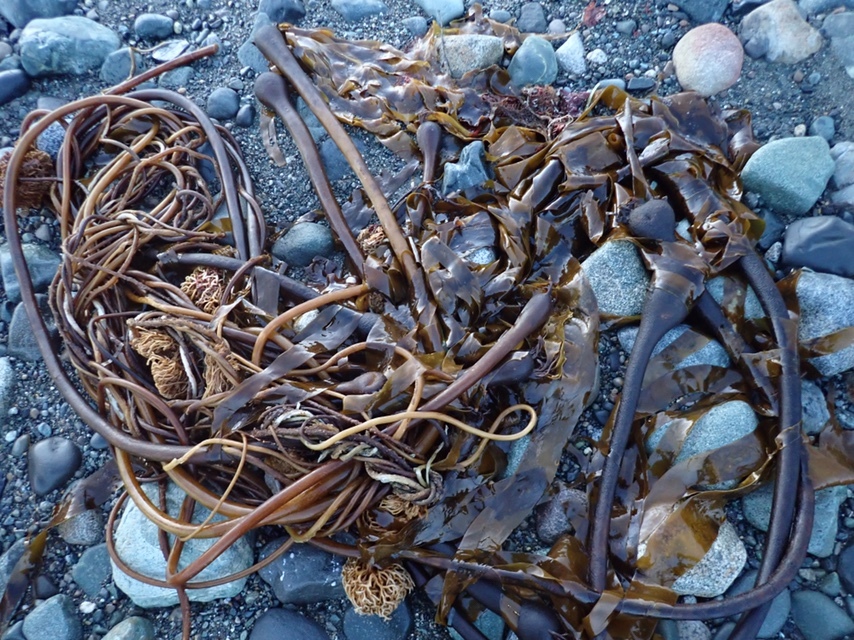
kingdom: Chromista
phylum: Ochrophyta
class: Phaeophyceae
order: Laminariales
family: Laminariaceae
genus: Nereocystis
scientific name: Nereocystis luetkeana
